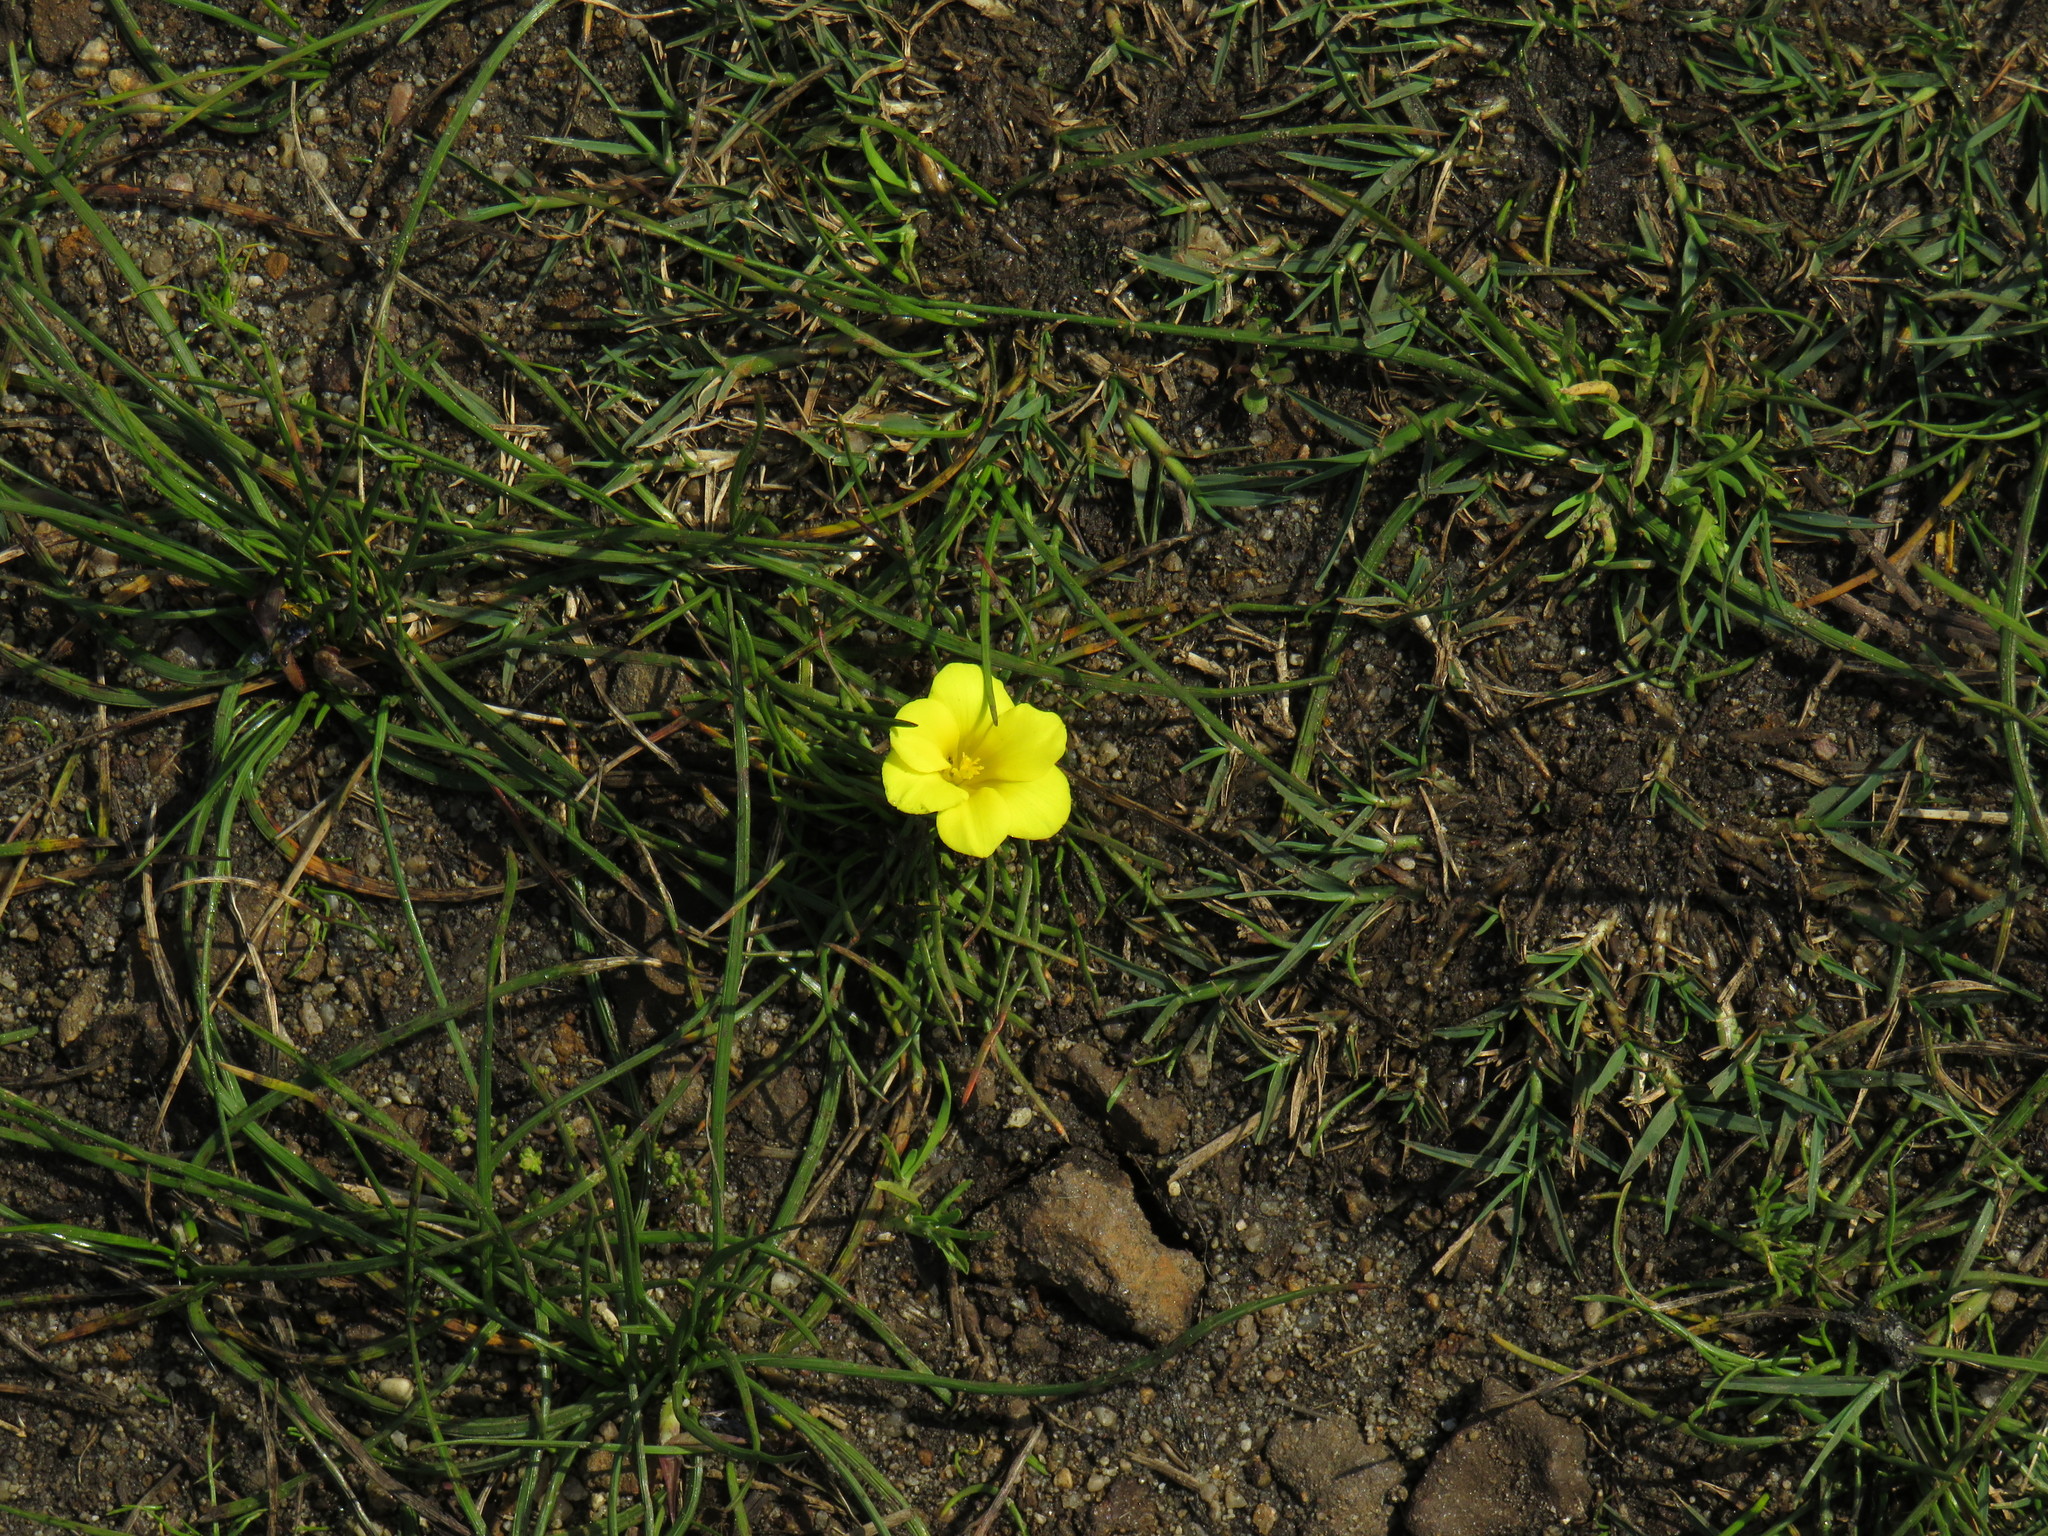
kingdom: Plantae
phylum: Tracheophyta
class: Liliopsida
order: Asparagales
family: Iridaceae
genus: Moraea
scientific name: Moraea fugacissima
